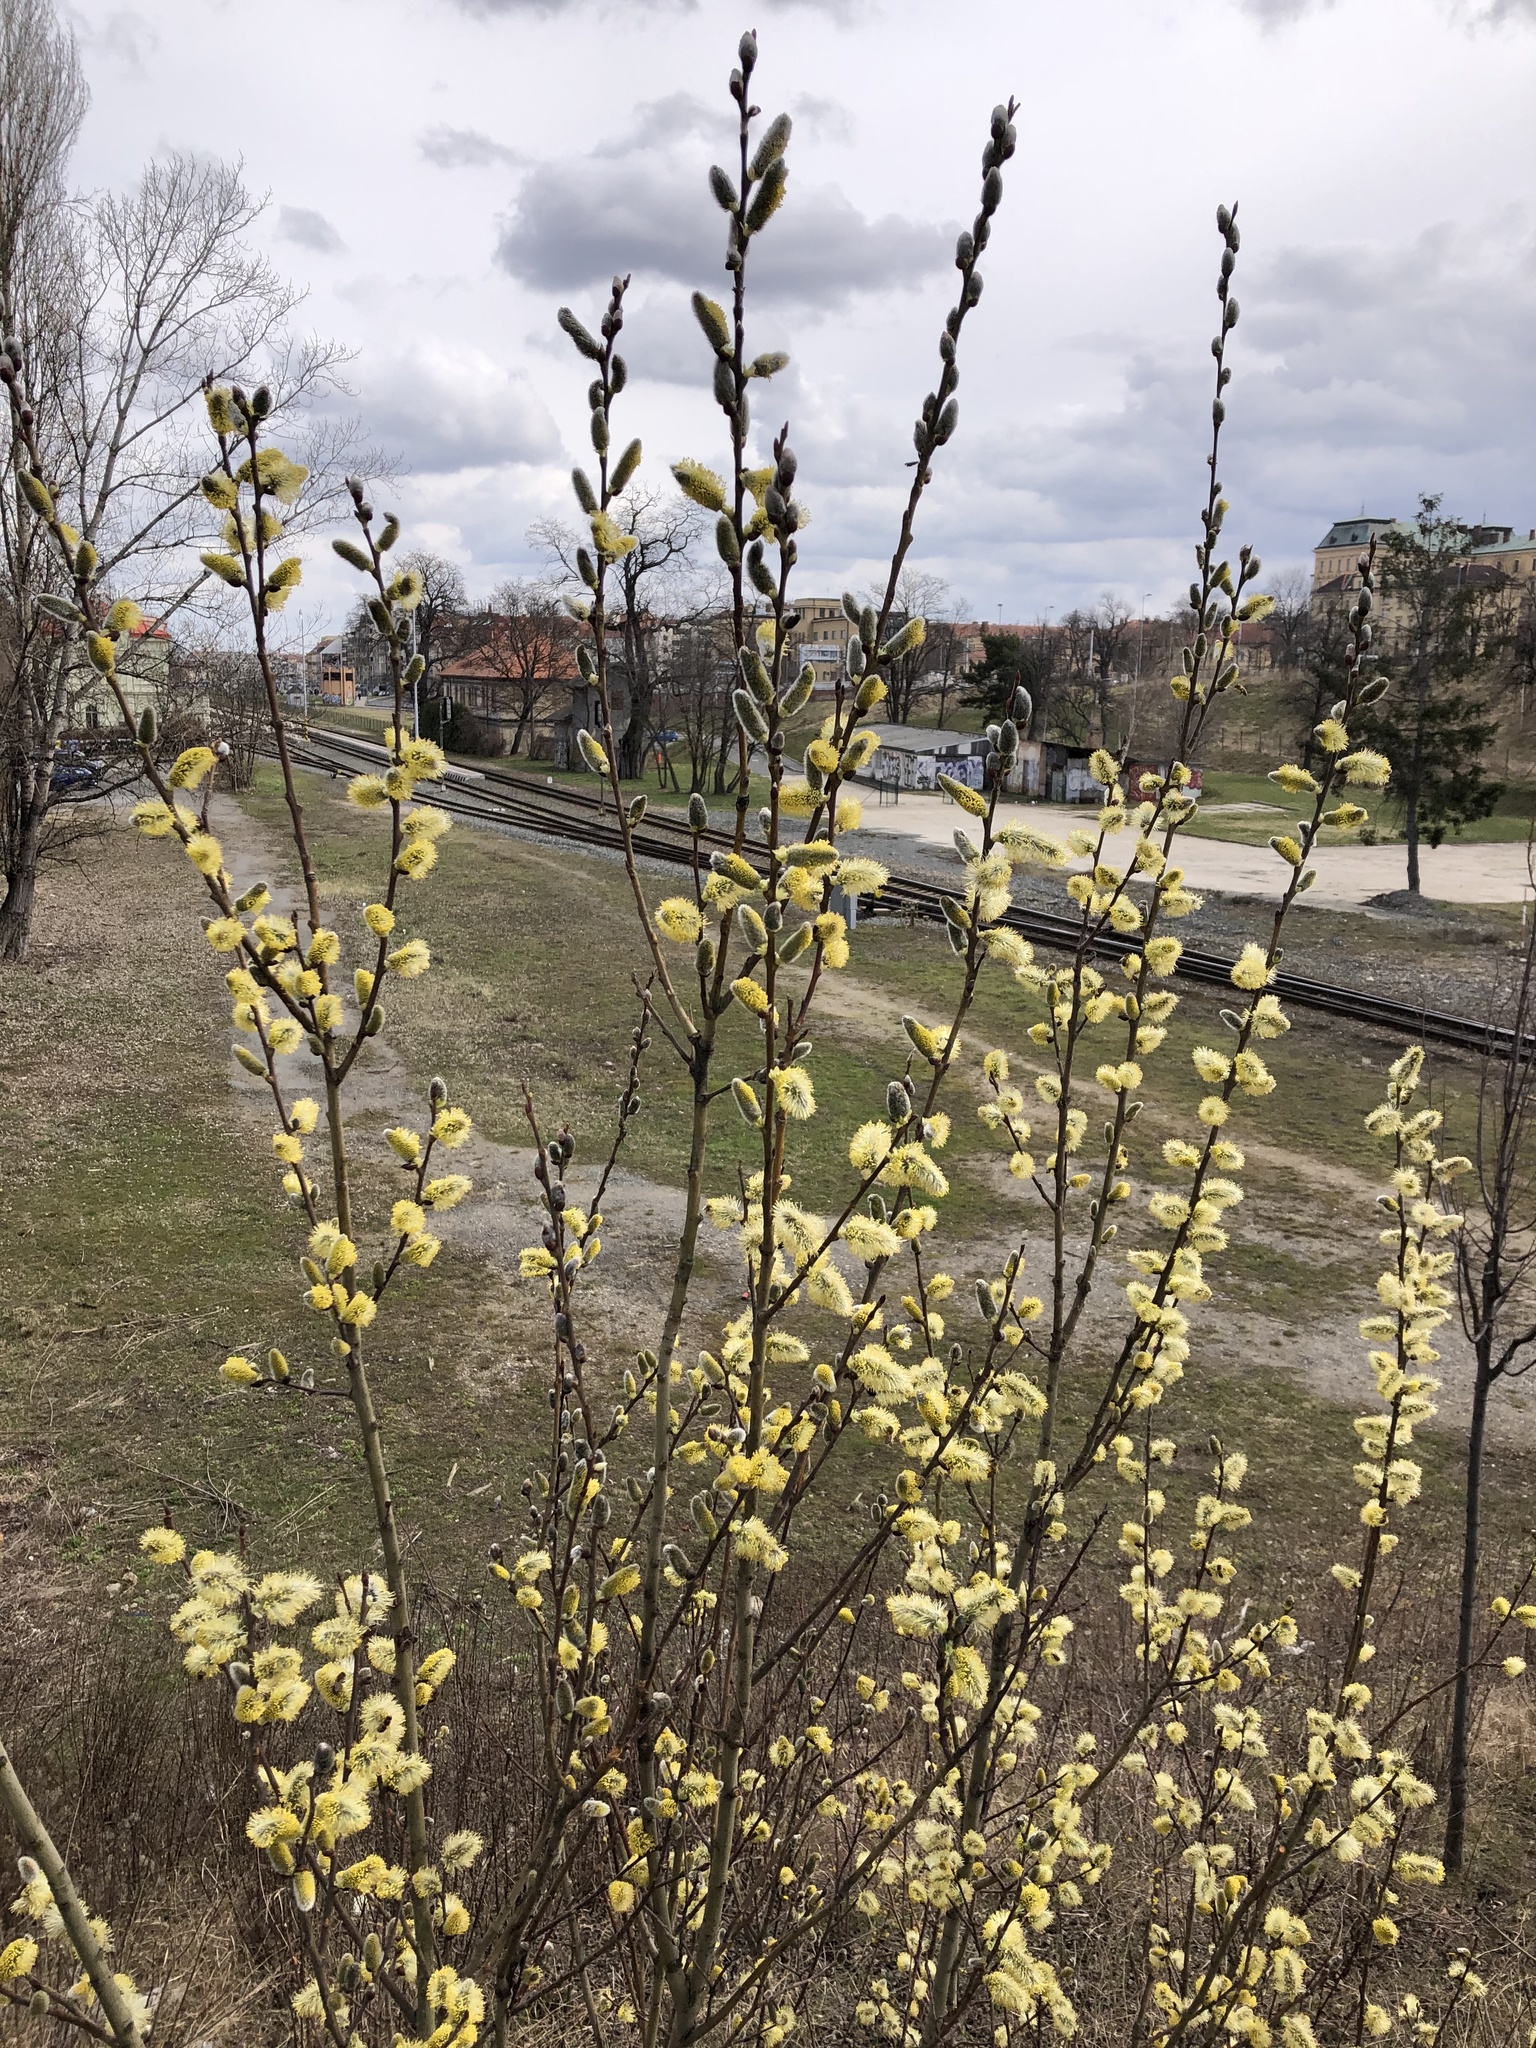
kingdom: Plantae
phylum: Tracheophyta
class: Magnoliopsida
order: Malpighiales
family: Salicaceae
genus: Salix
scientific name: Salix caprea
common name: Goat willow
